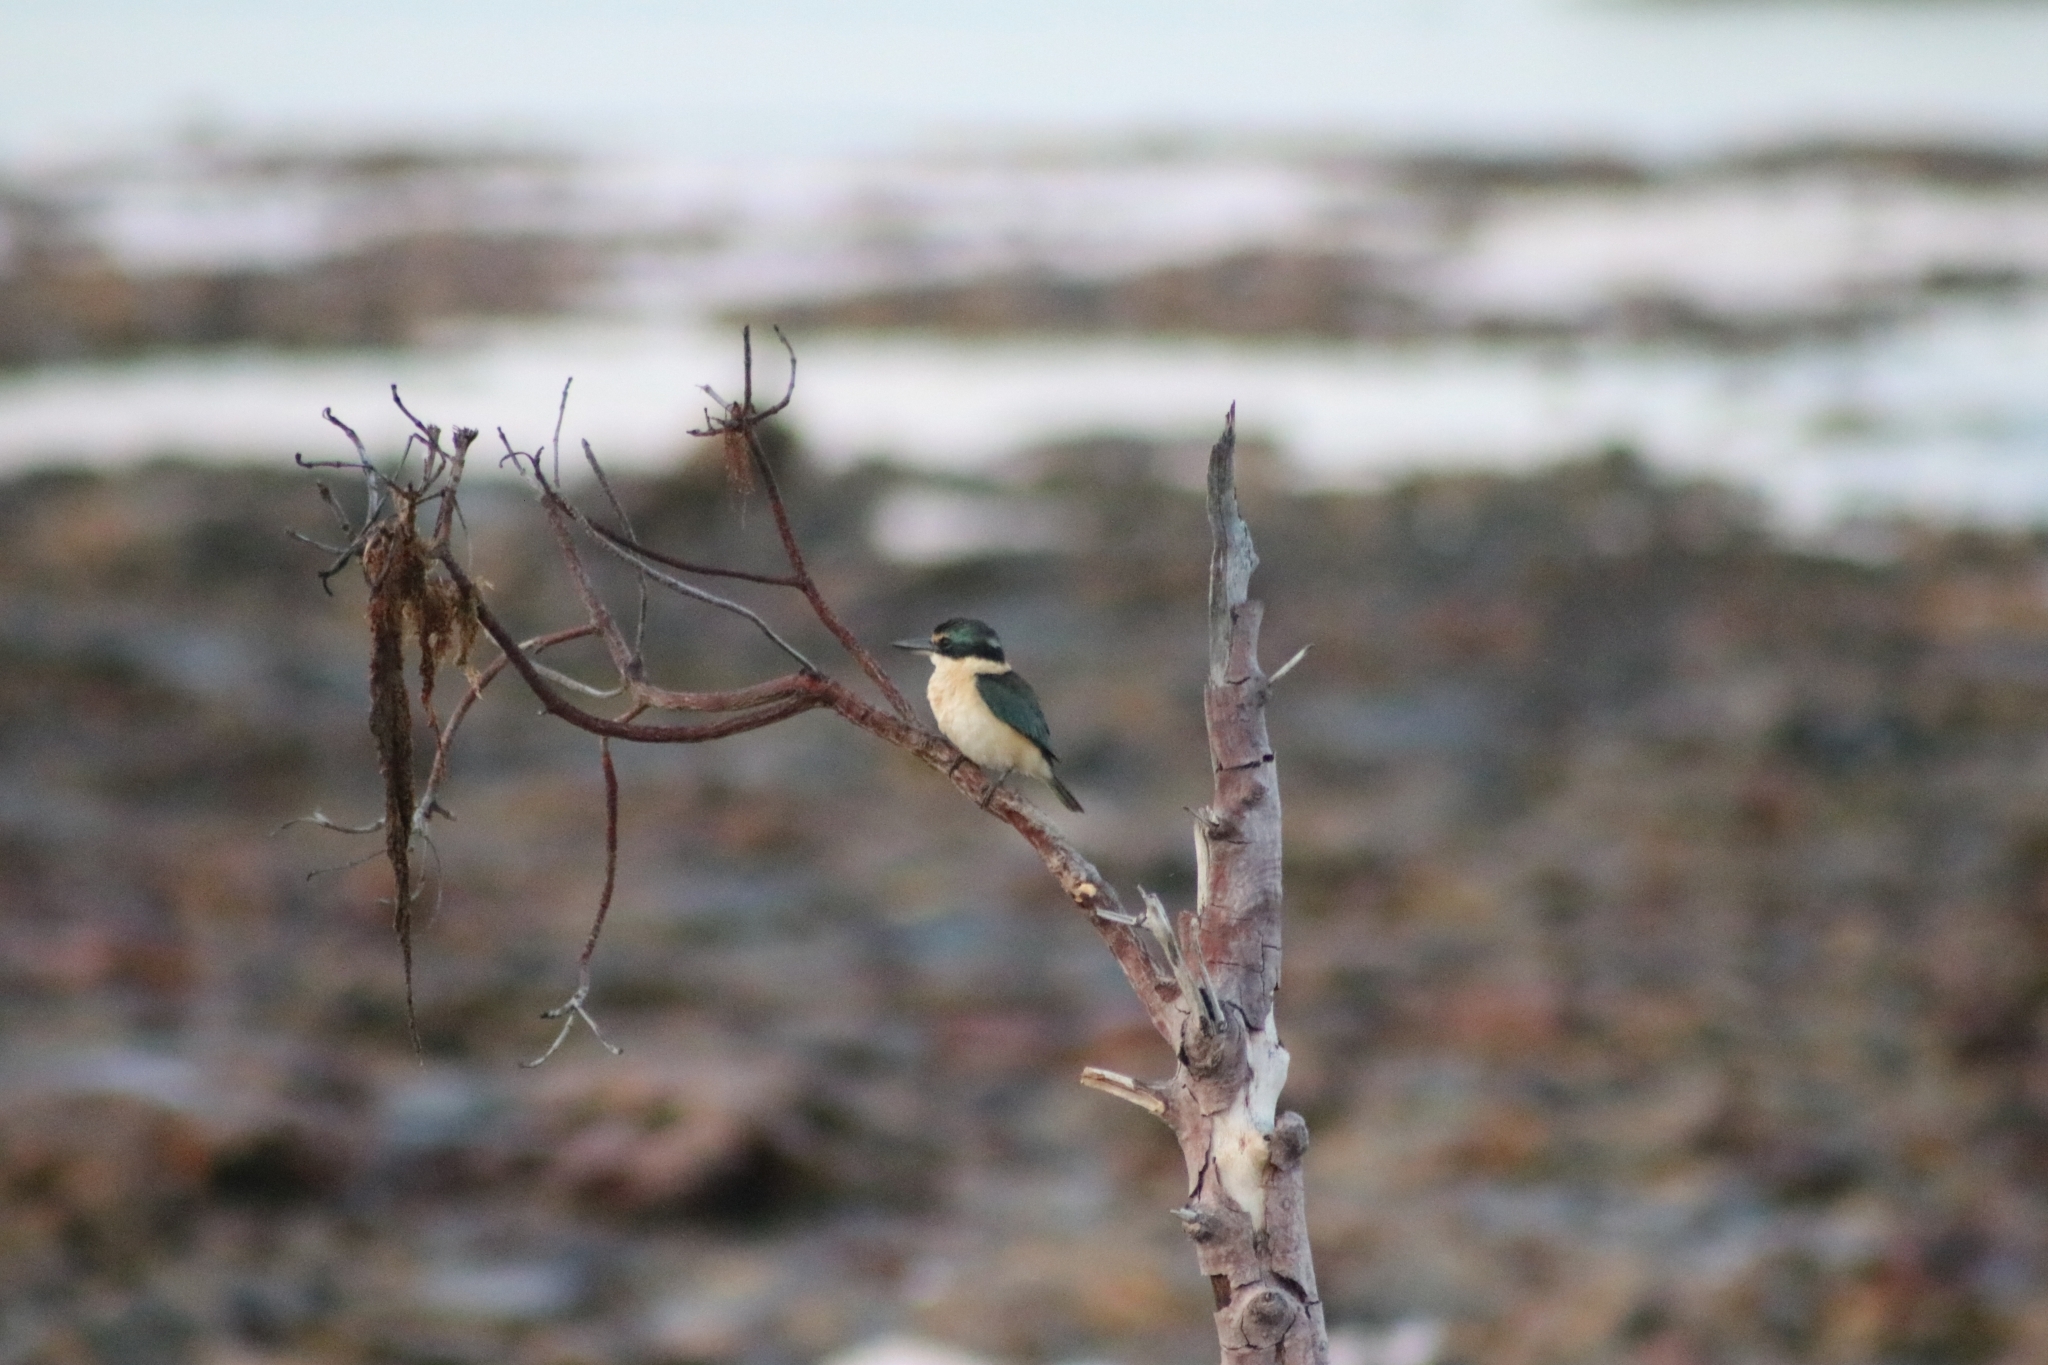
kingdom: Animalia
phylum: Chordata
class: Aves
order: Coraciiformes
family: Alcedinidae
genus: Todiramphus
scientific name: Todiramphus sanctus
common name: Sacred kingfisher
